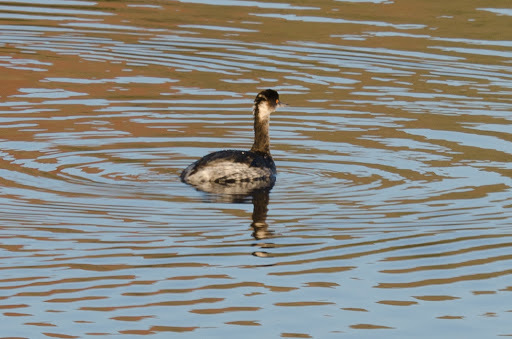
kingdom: Animalia
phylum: Chordata
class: Aves
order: Podicipediformes
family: Podicipedidae
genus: Podiceps
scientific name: Podiceps nigricollis
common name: Black-necked grebe
